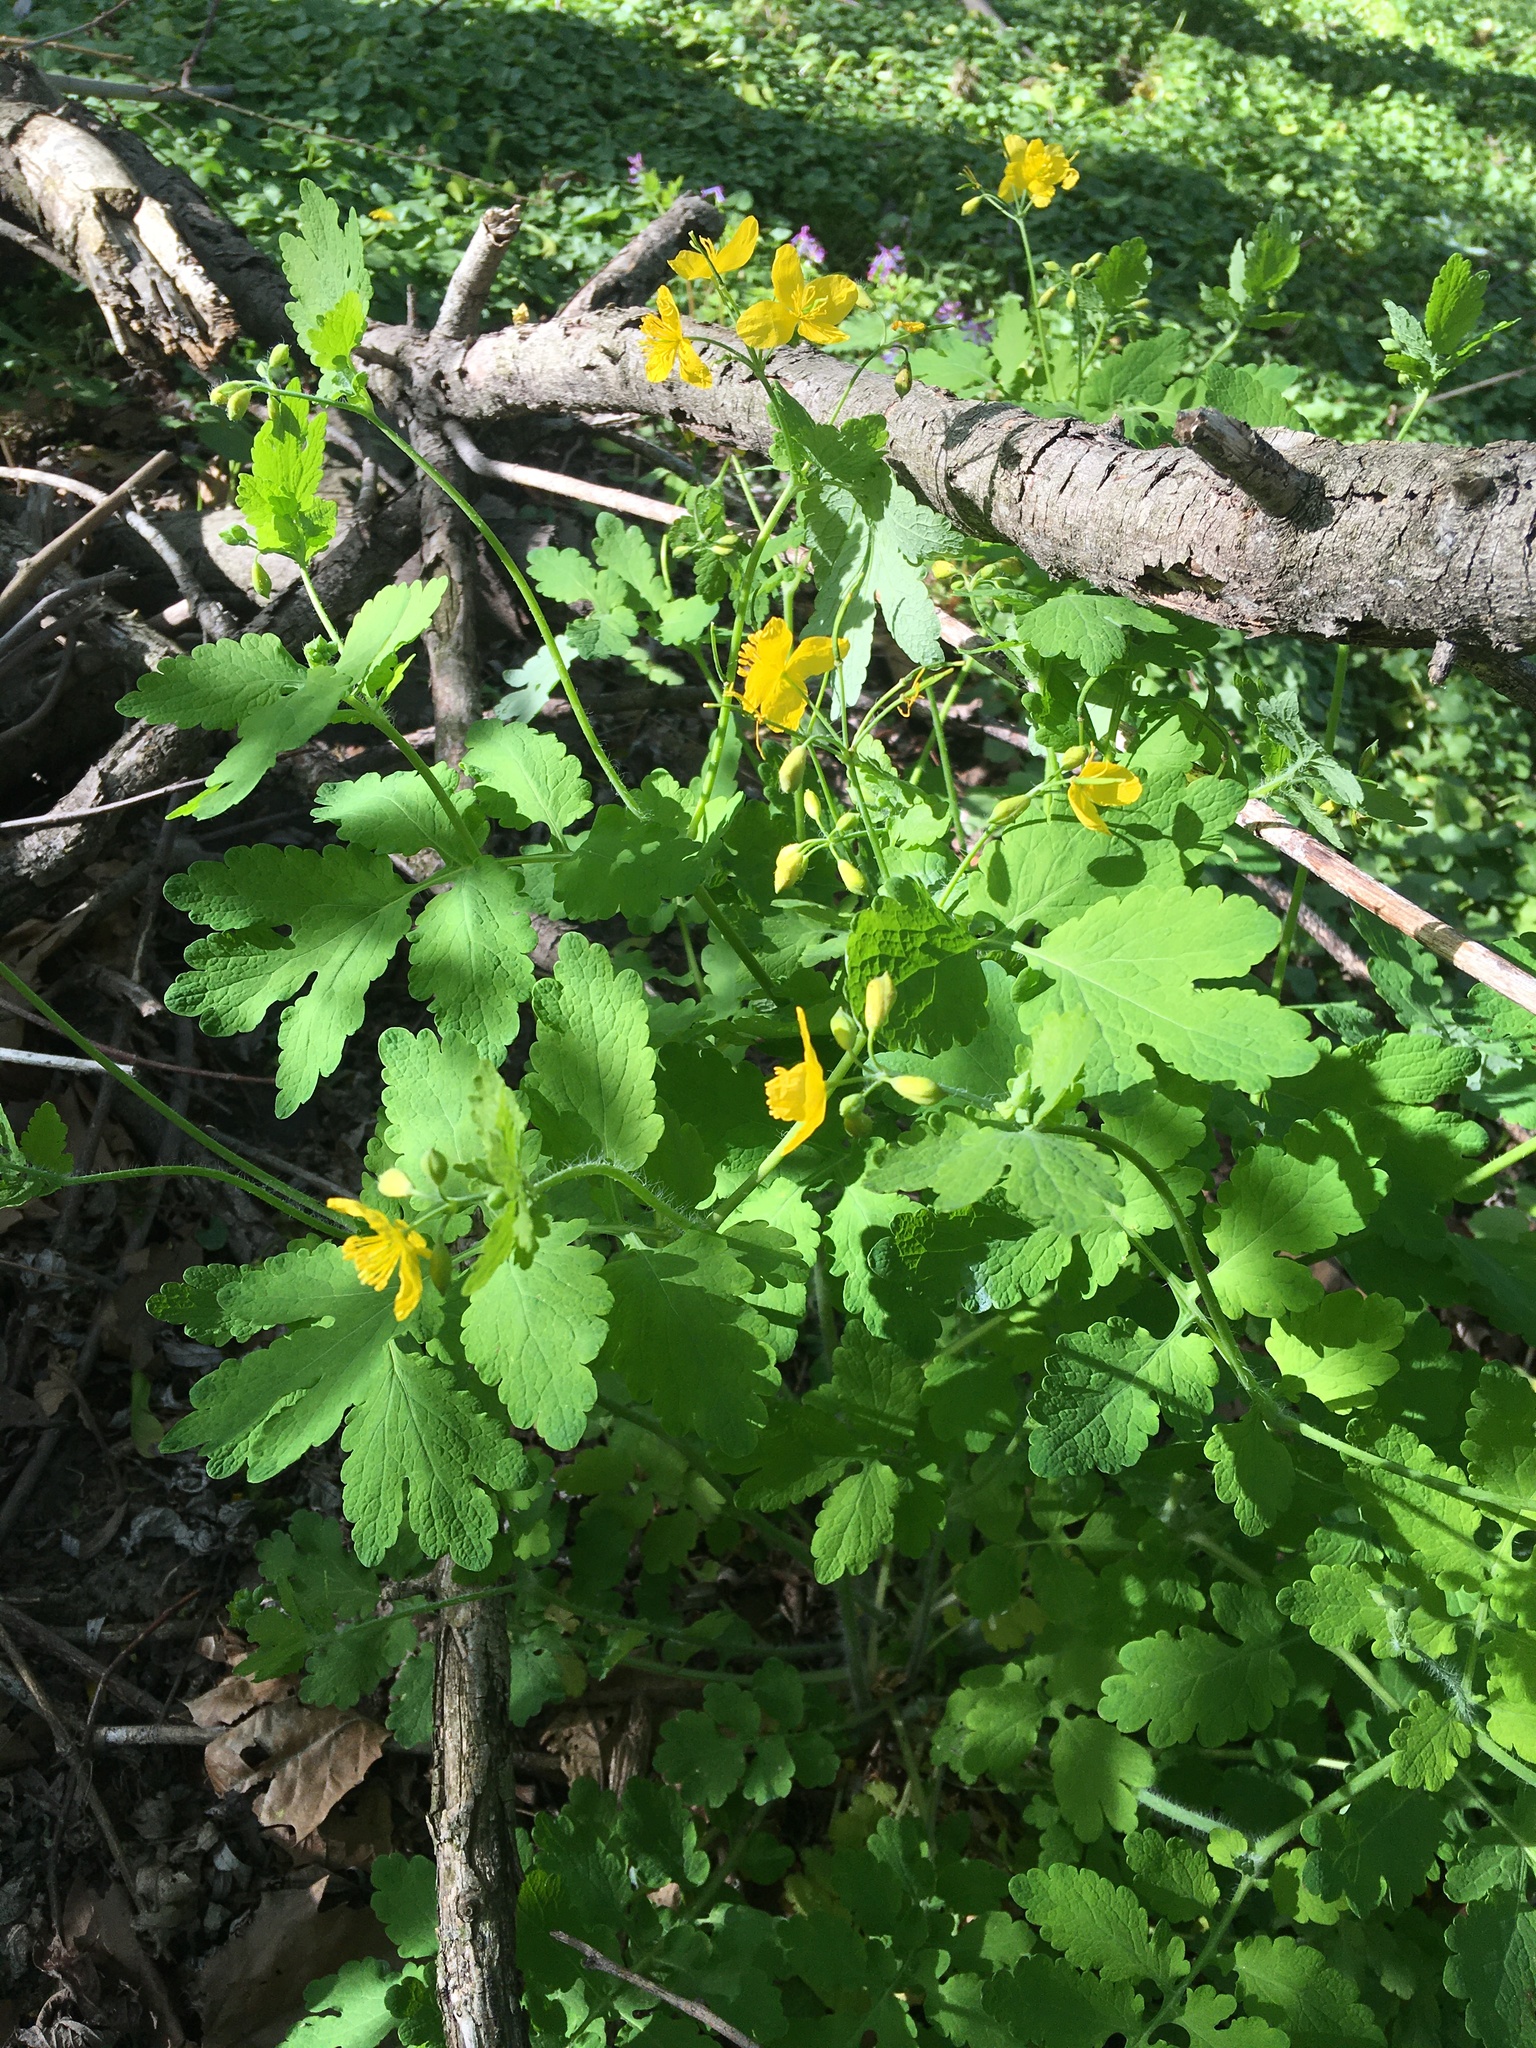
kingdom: Plantae
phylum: Tracheophyta
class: Magnoliopsida
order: Ranunculales
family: Papaveraceae
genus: Chelidonium
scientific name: Chelidonium majus
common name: Greater celandine
